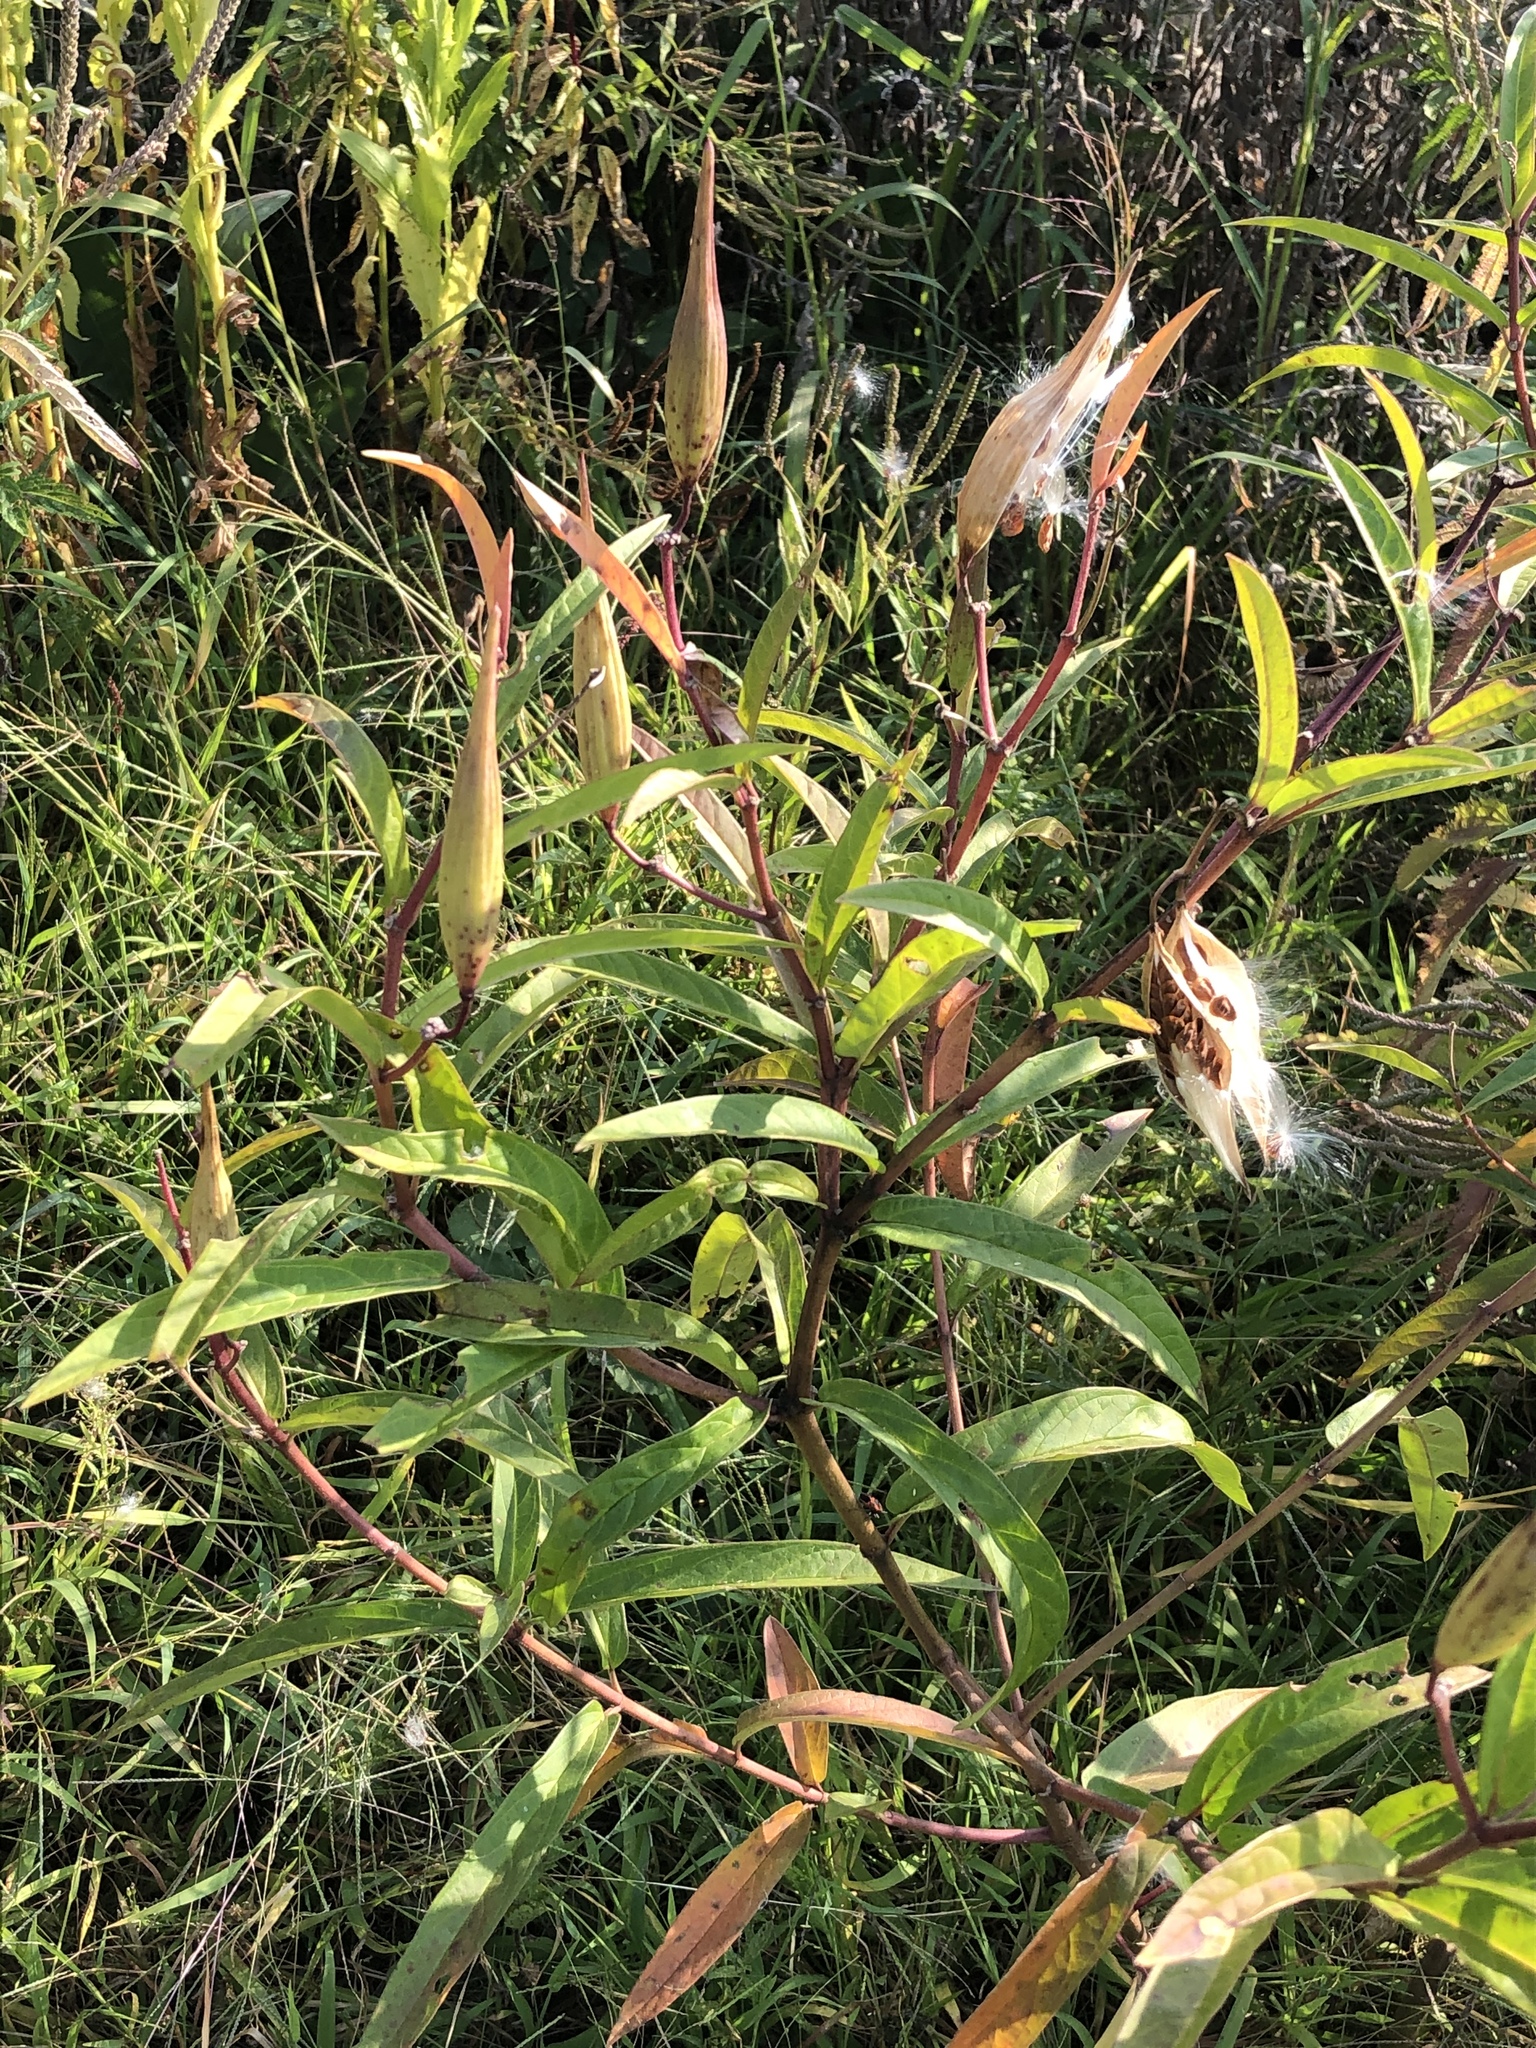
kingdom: Plantae
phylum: Tracheophyta
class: Magnoliopsida
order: Gentianales
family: Apocynaceae
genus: Asclepias
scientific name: Asclepias incarnata
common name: Swamp milkweed
